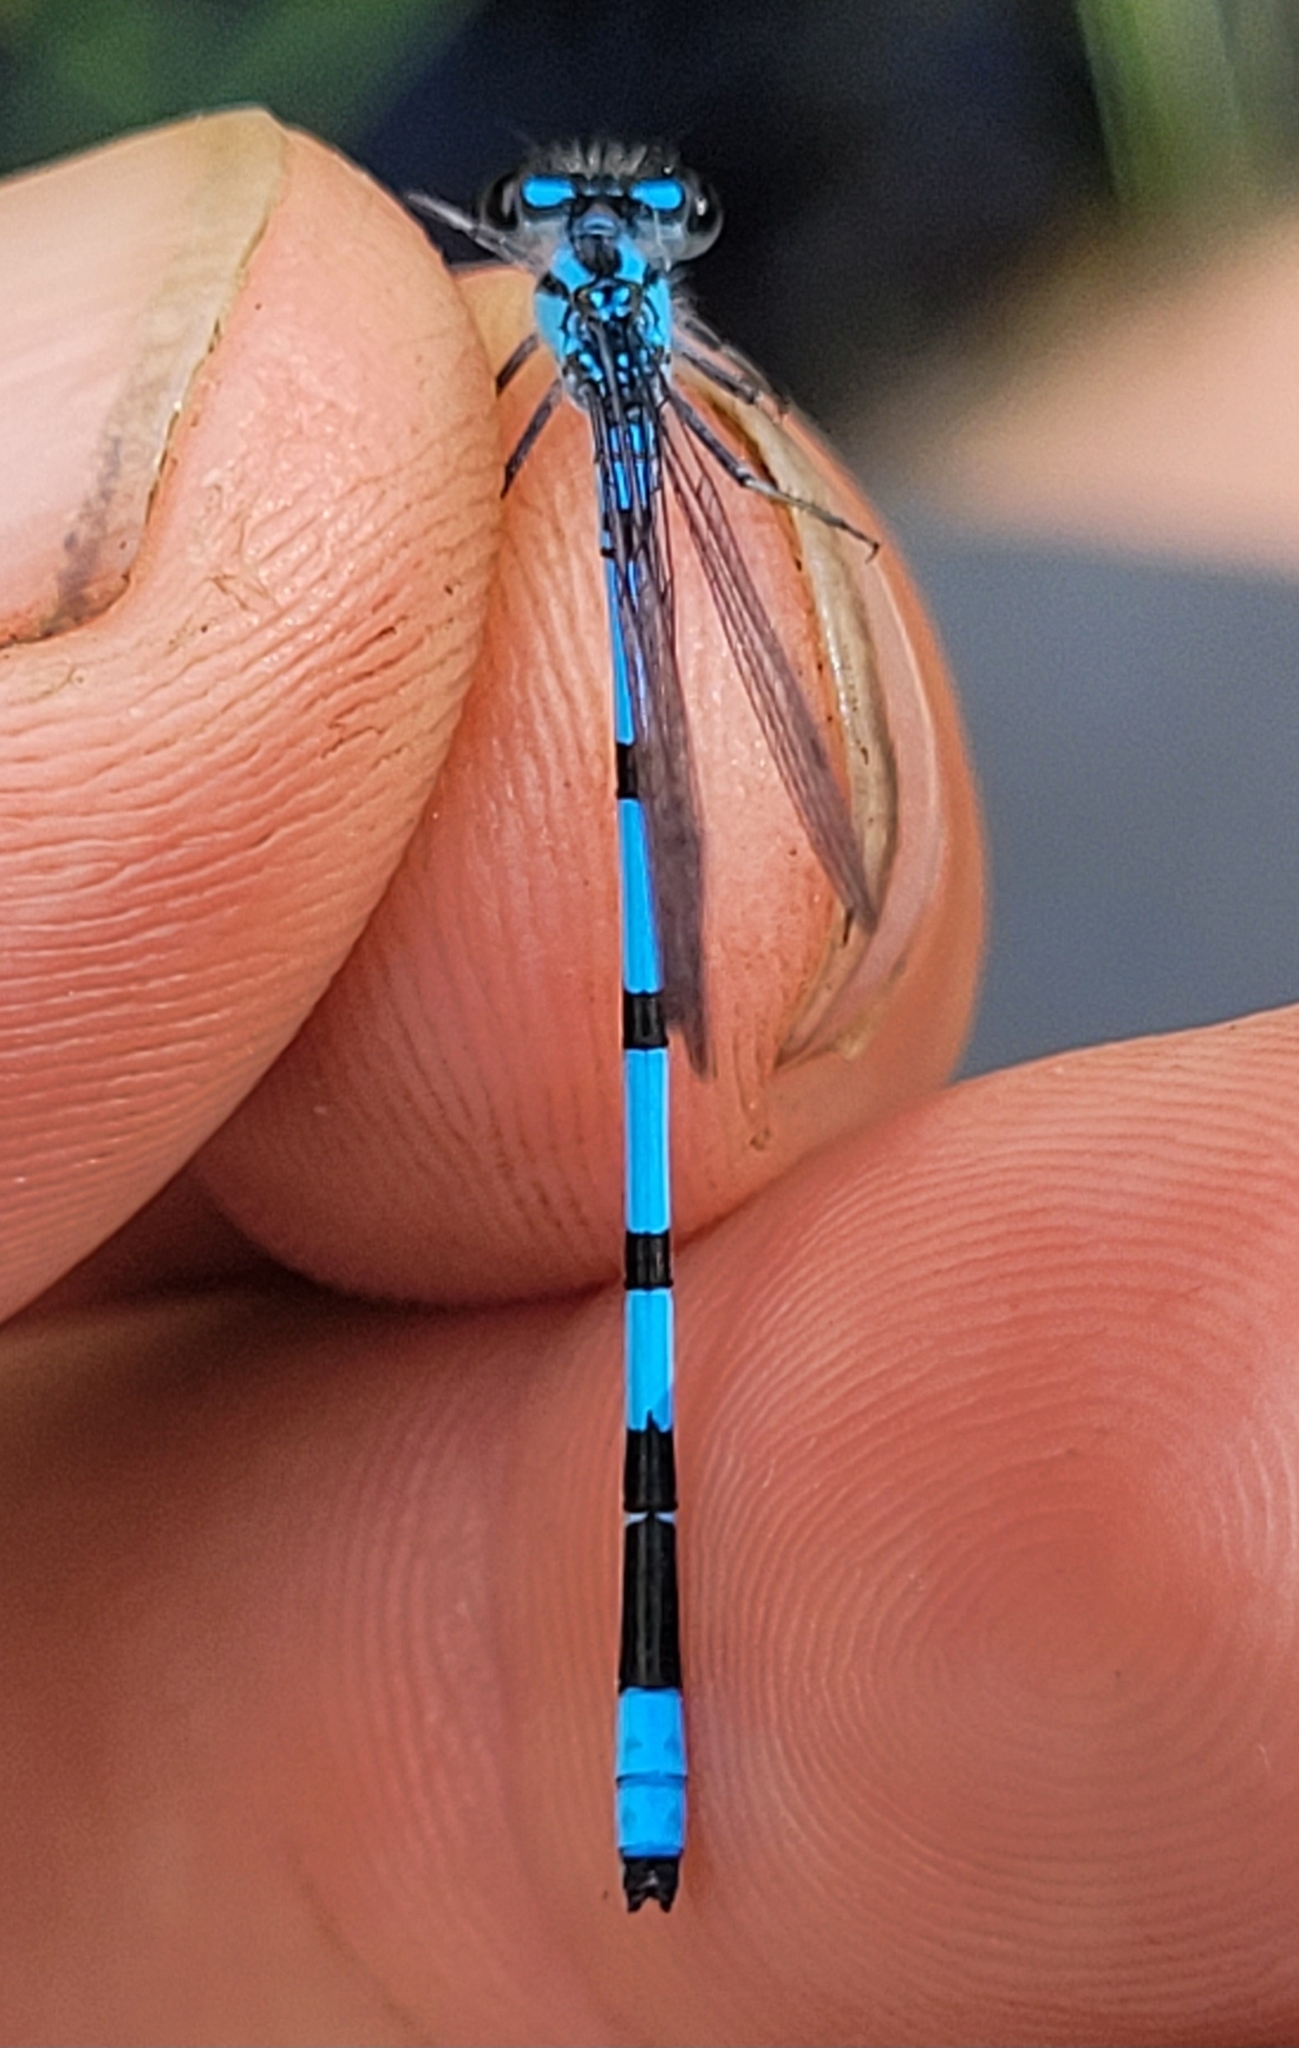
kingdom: Animalia
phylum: Arthropoda
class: Insecta
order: Odonata
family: Coenagrionidae
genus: Enallagma
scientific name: Enallagma hageni
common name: Hagen's bluet
